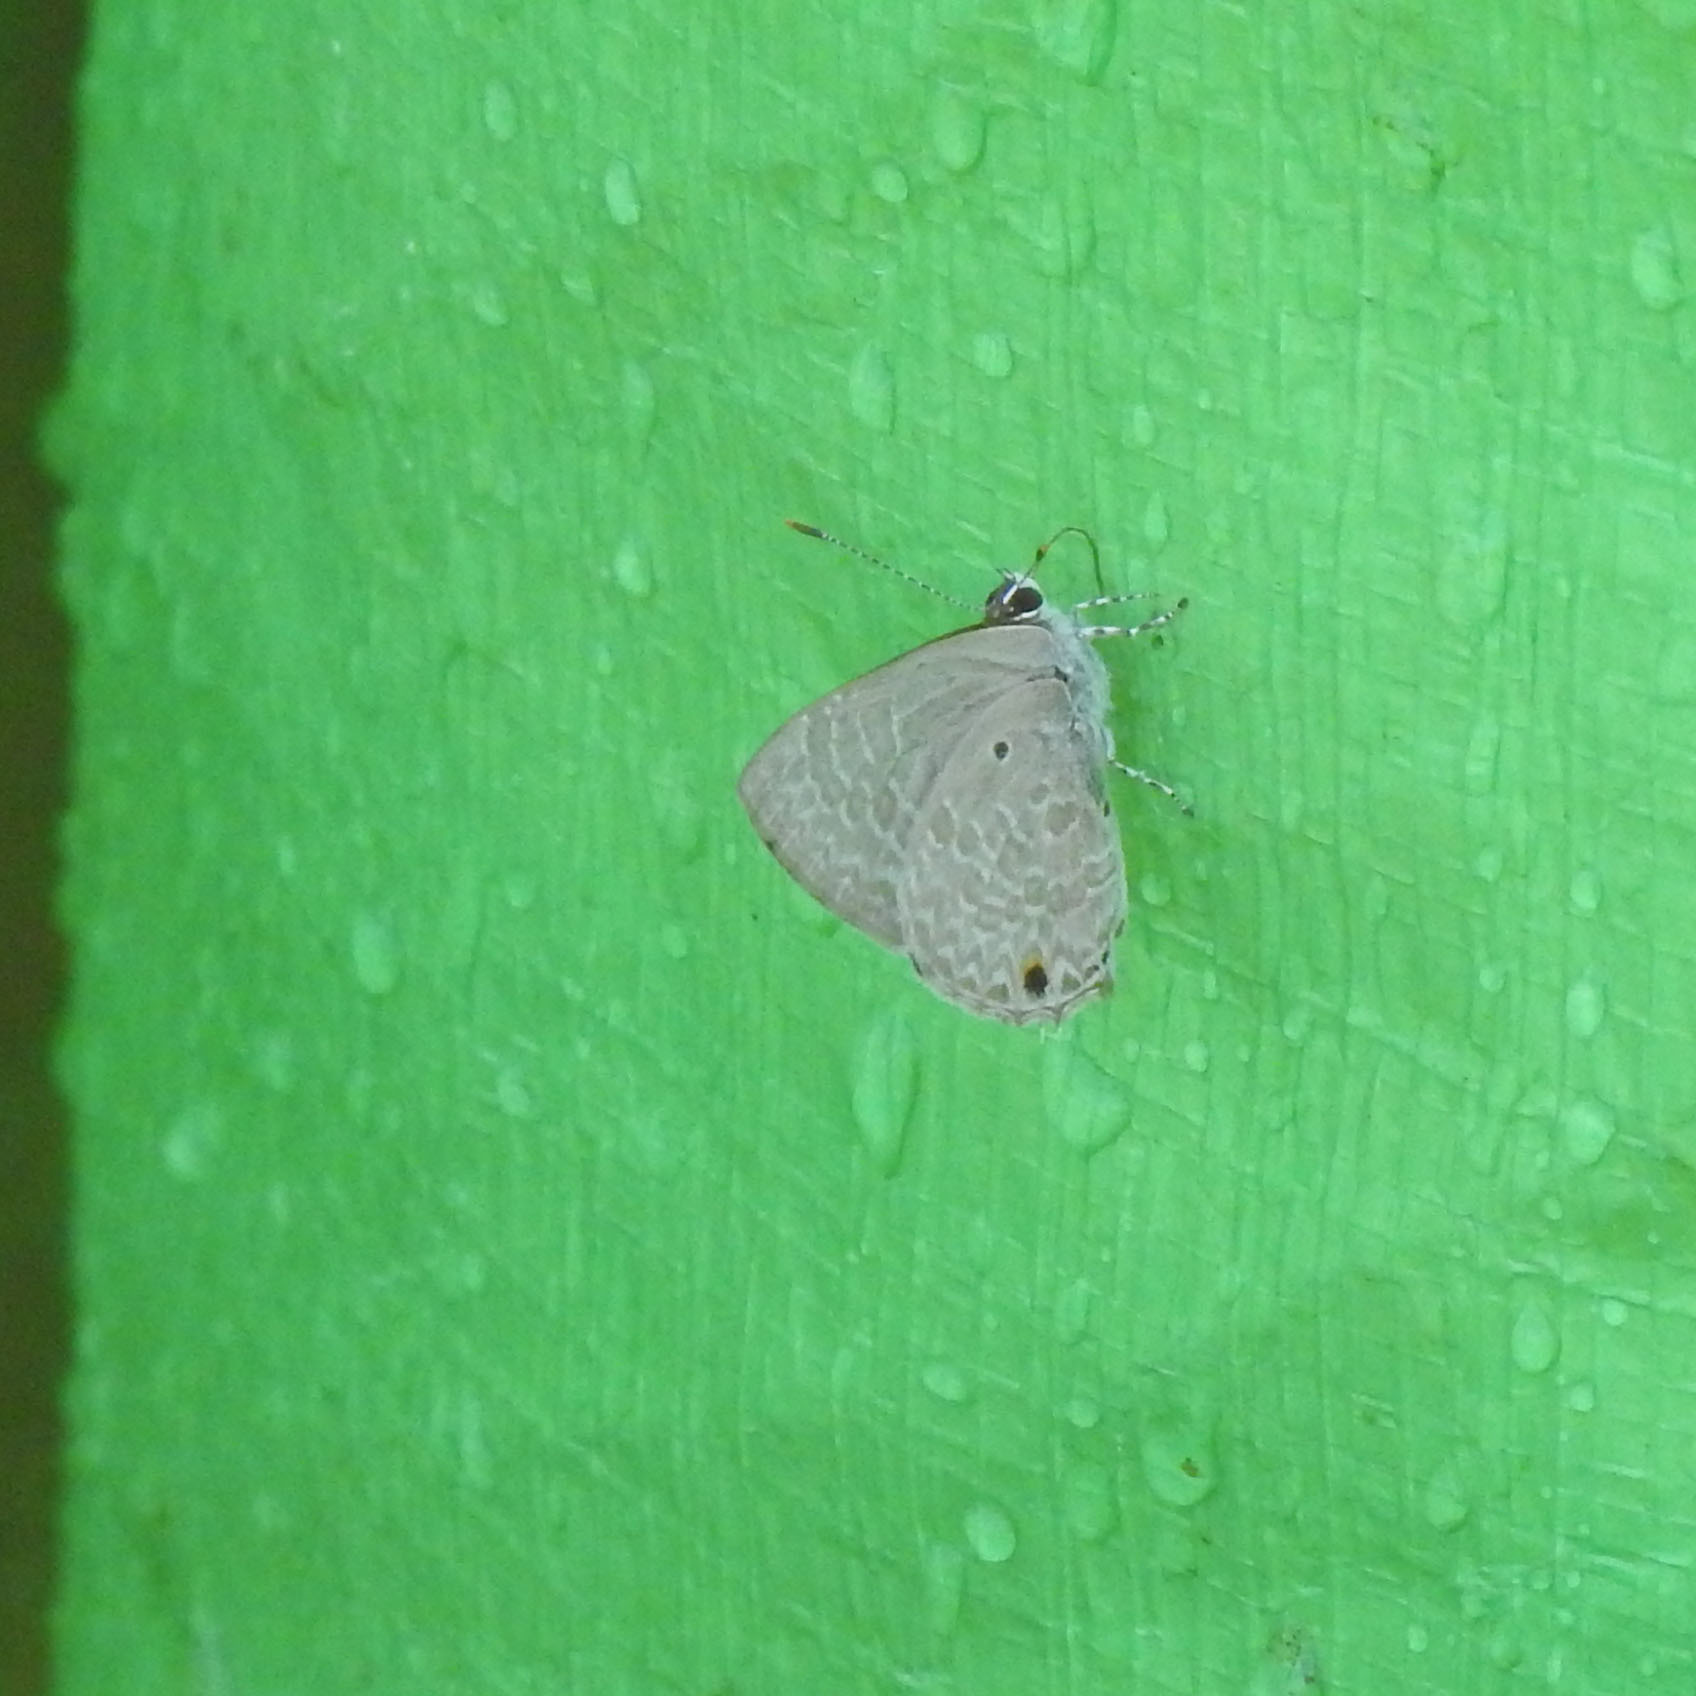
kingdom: Animalia
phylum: Arthropoda
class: Insecta
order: Lepidoptera
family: Lycaenidae
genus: Anthene
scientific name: Anthene lycaenina
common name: Pointed ciliate blue
